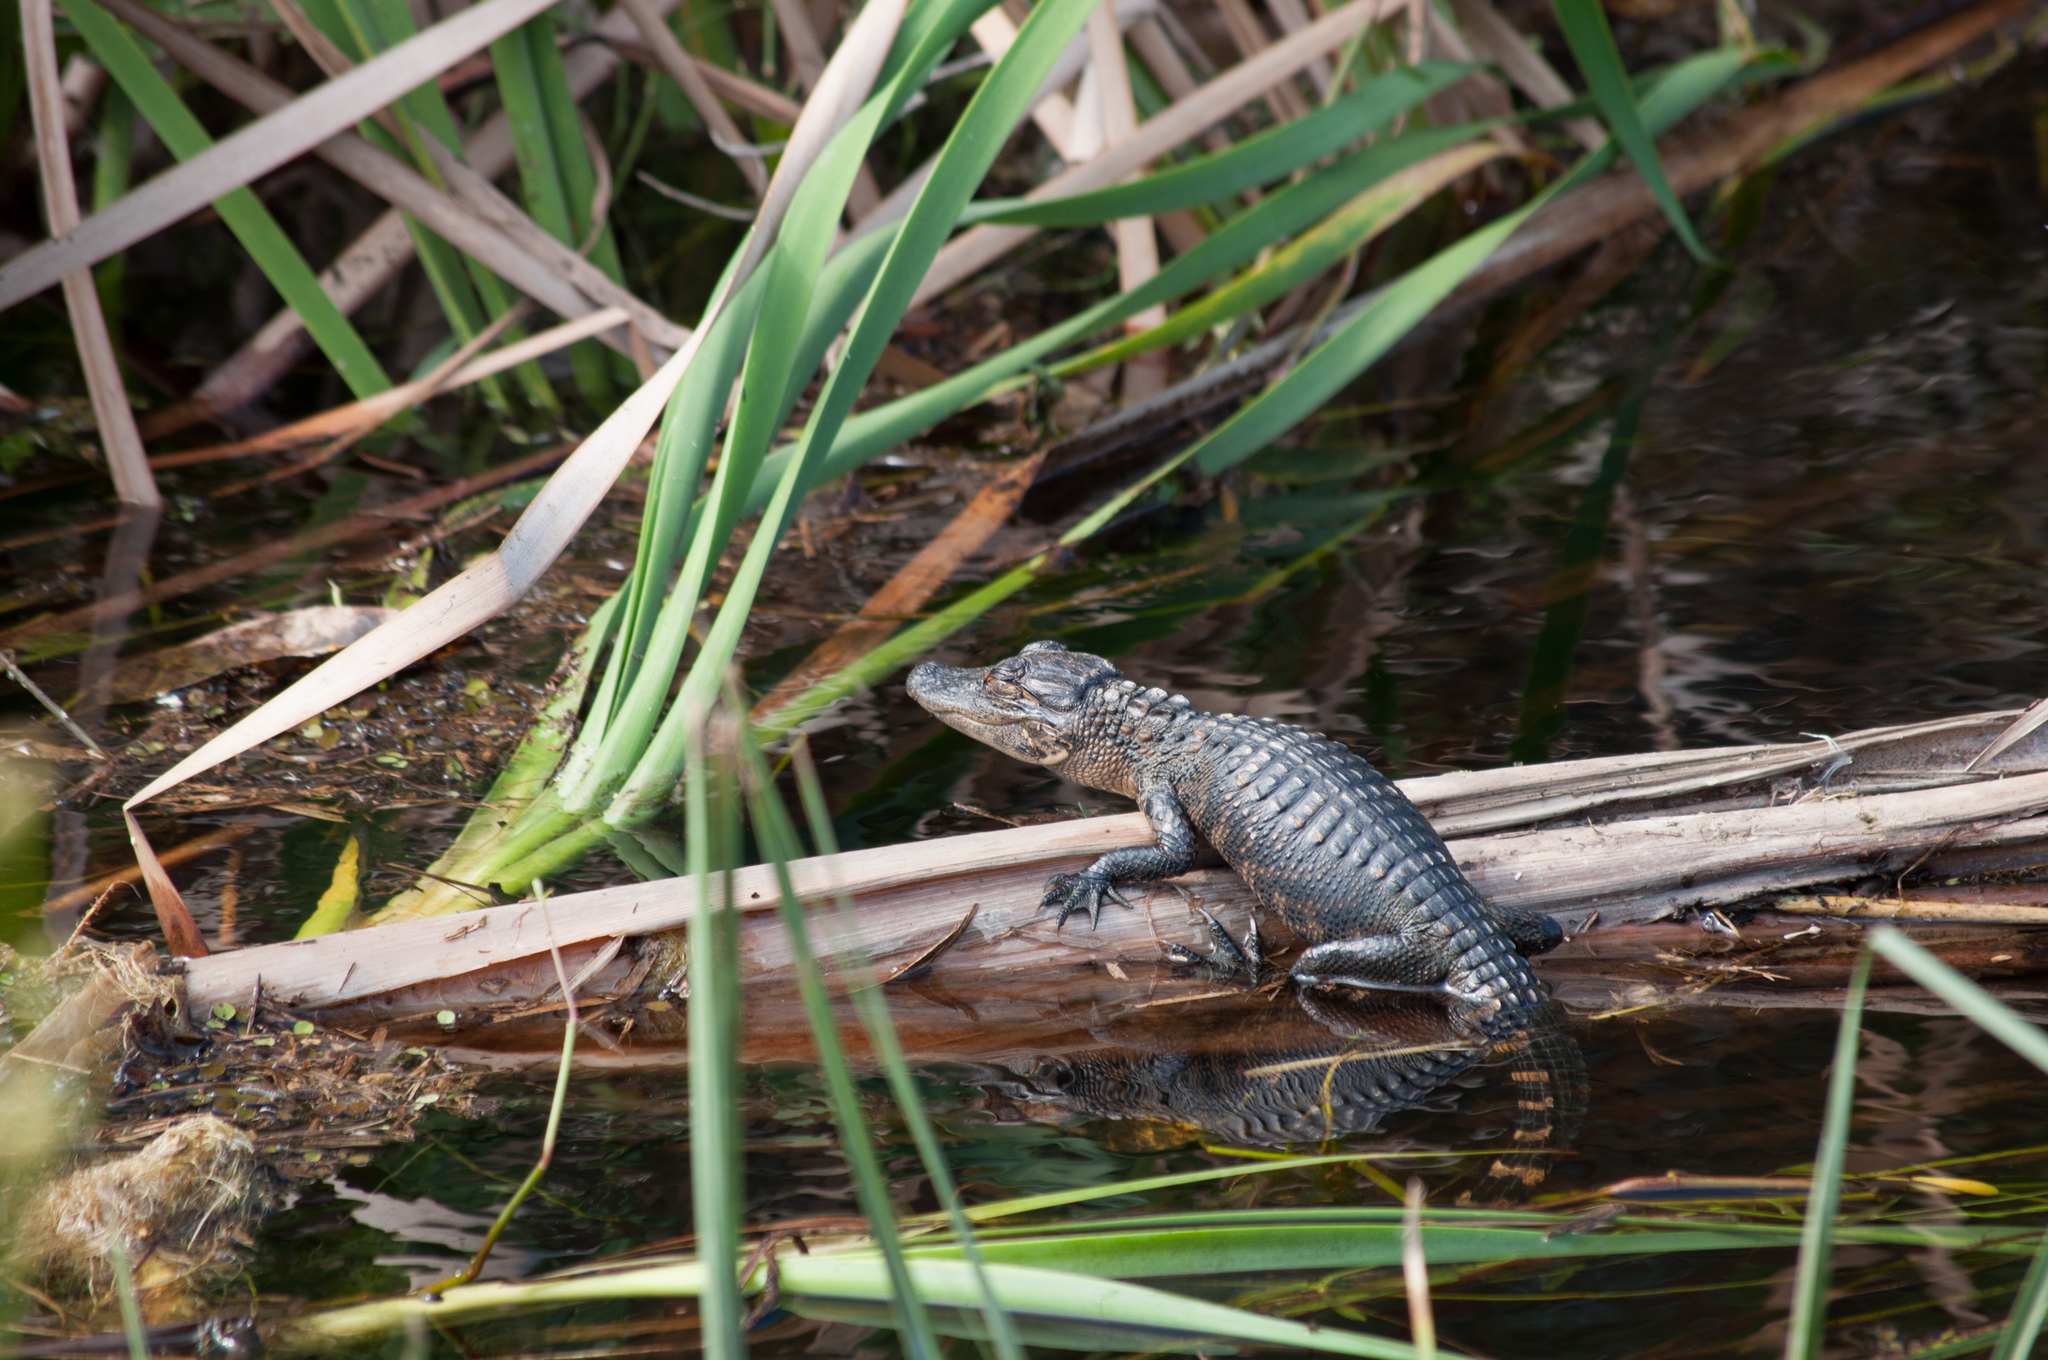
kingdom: Animalia
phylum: Chordata
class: Crocodylia
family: Alligatoridae
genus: Alligator
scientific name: Alligator mississippiensis
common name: American alligator
